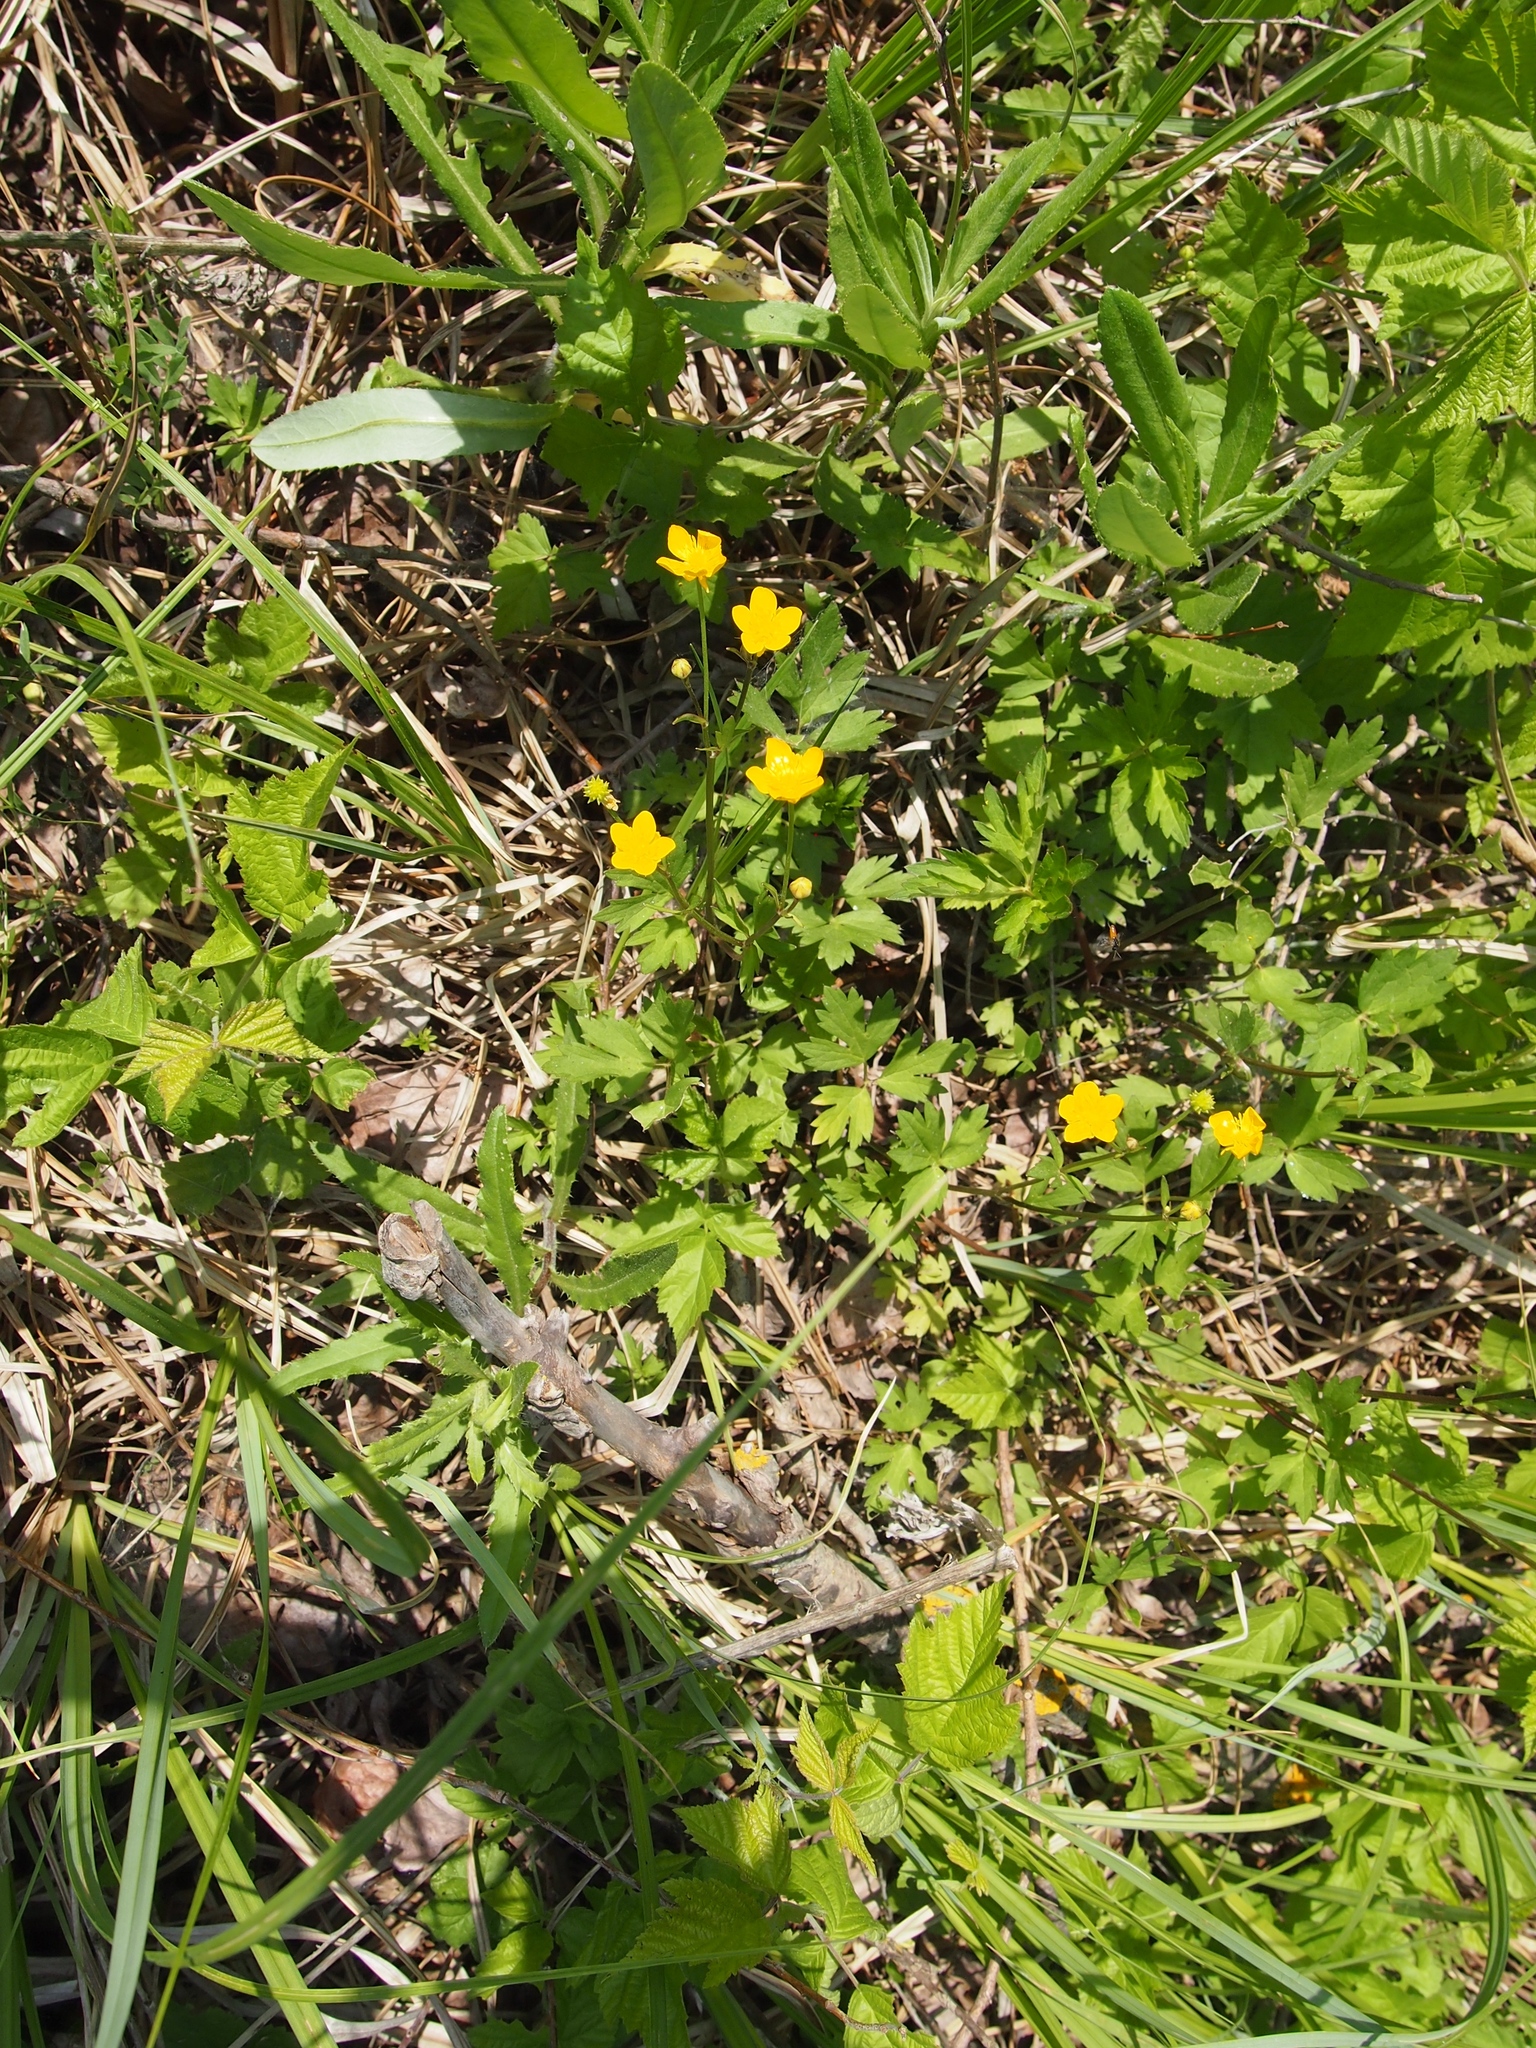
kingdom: Plantae
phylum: Tracheophyta
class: Magnoliopsida
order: Ranunculales
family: Ranunculaceae
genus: Ranunculus
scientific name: Ranunculus repens
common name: Creeping buttercup
